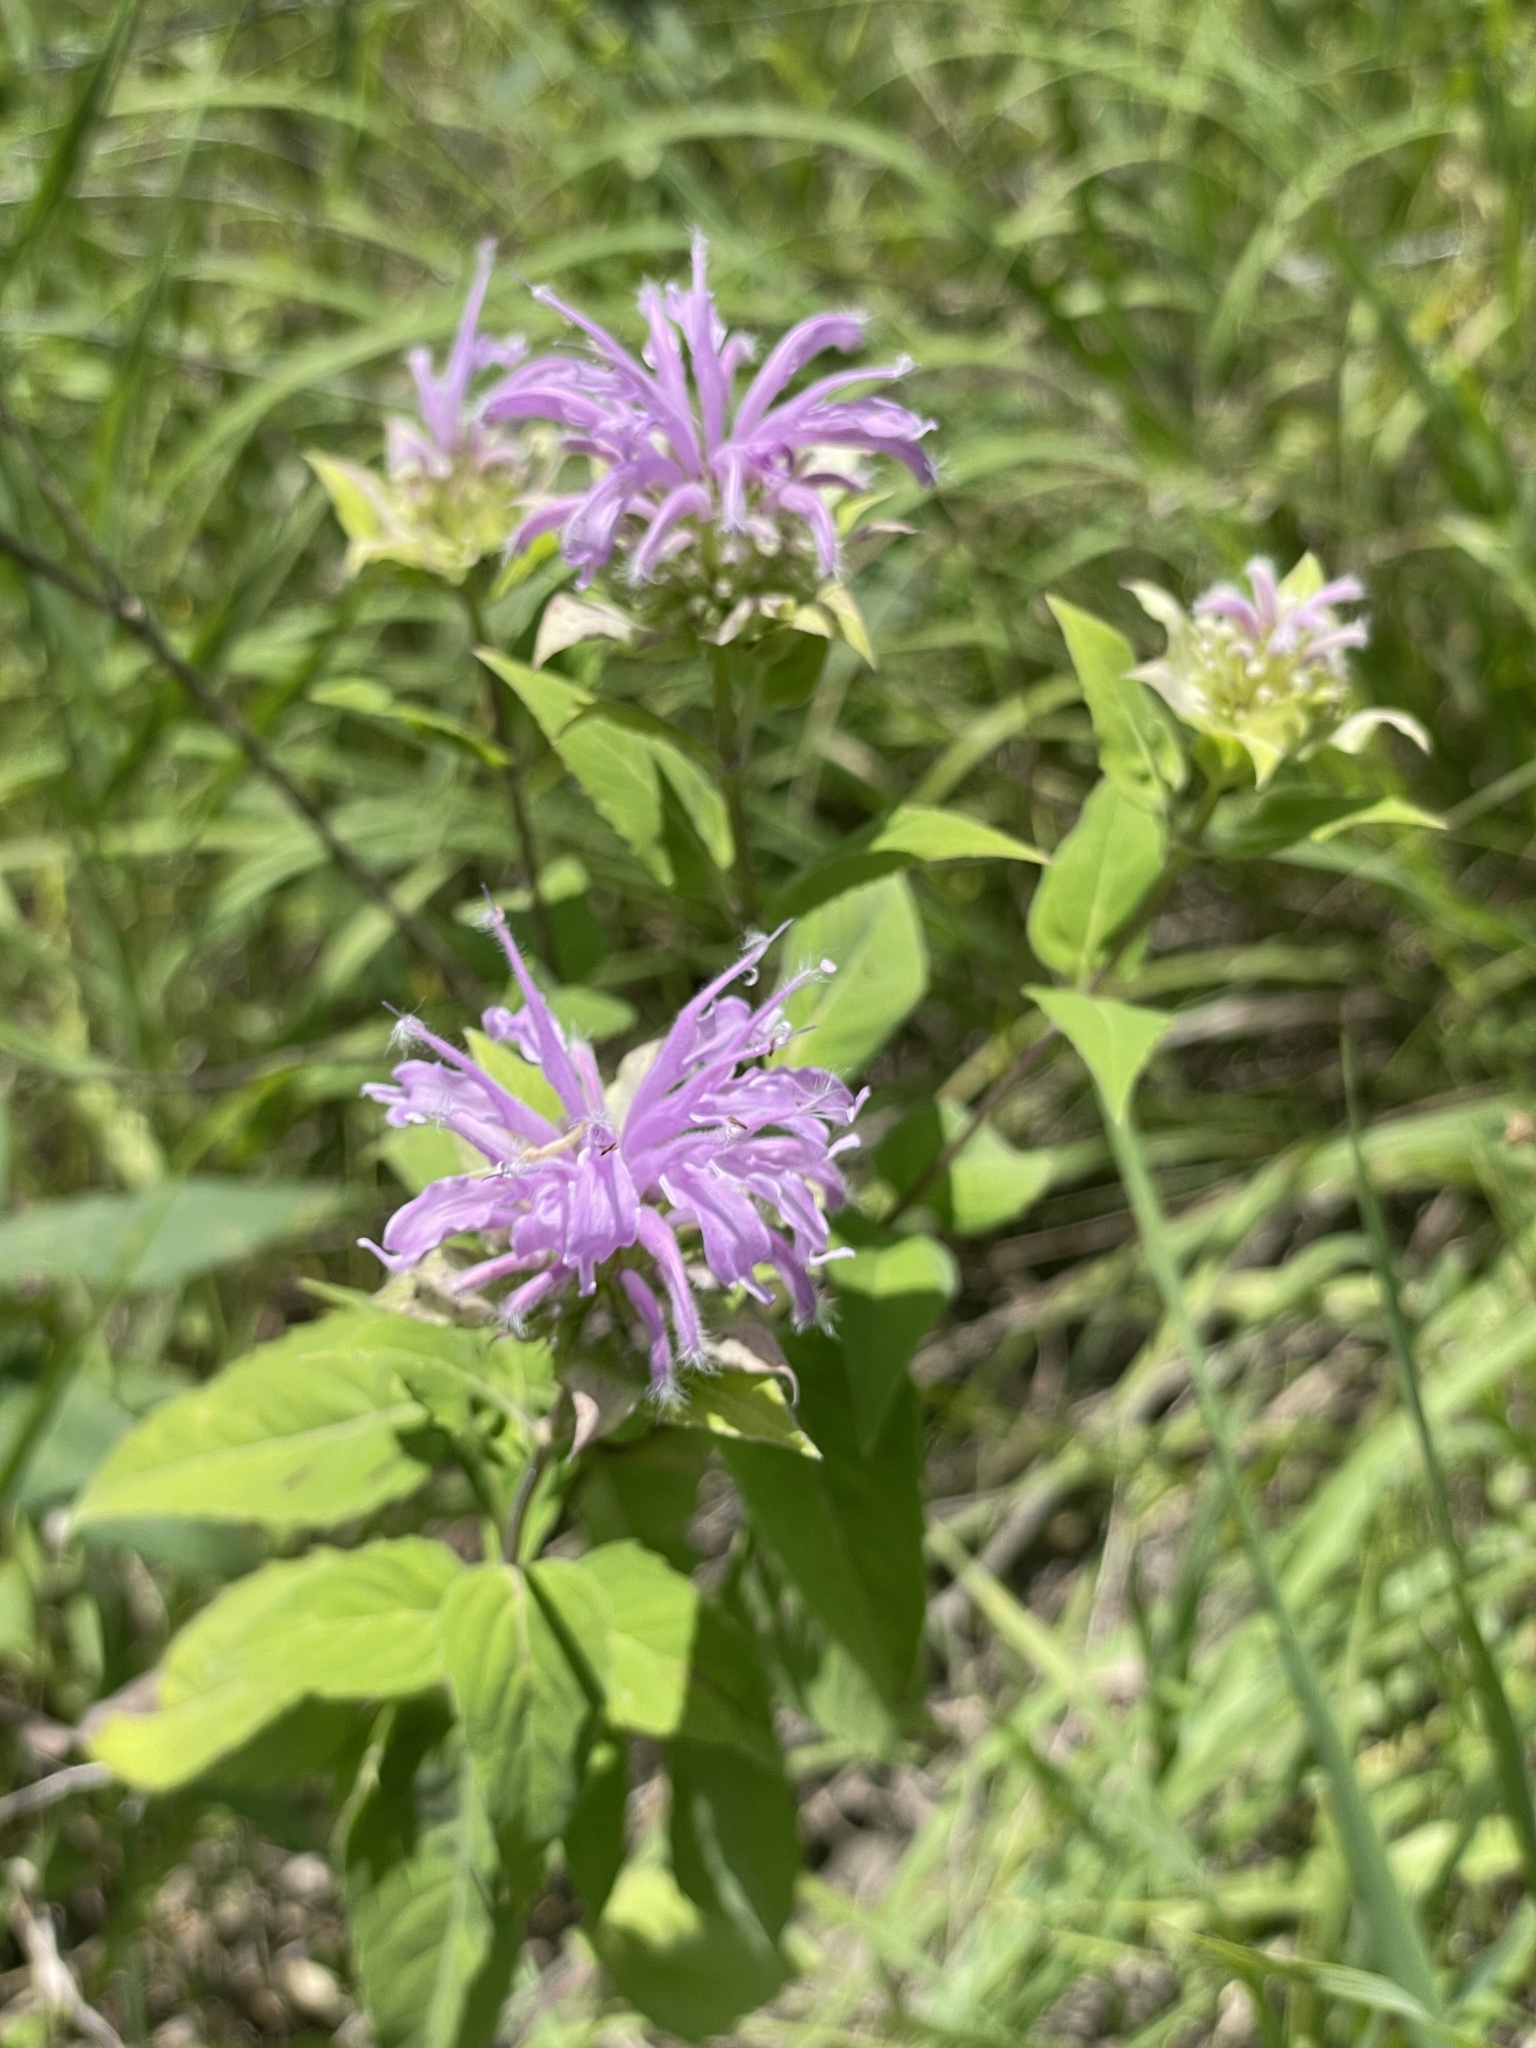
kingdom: Plantae
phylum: Tracheophyta
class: Magnoliopsida
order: Lamiales
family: Lamiaceae
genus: Monarda
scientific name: Monarda fistulosa
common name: Purple beebalm
